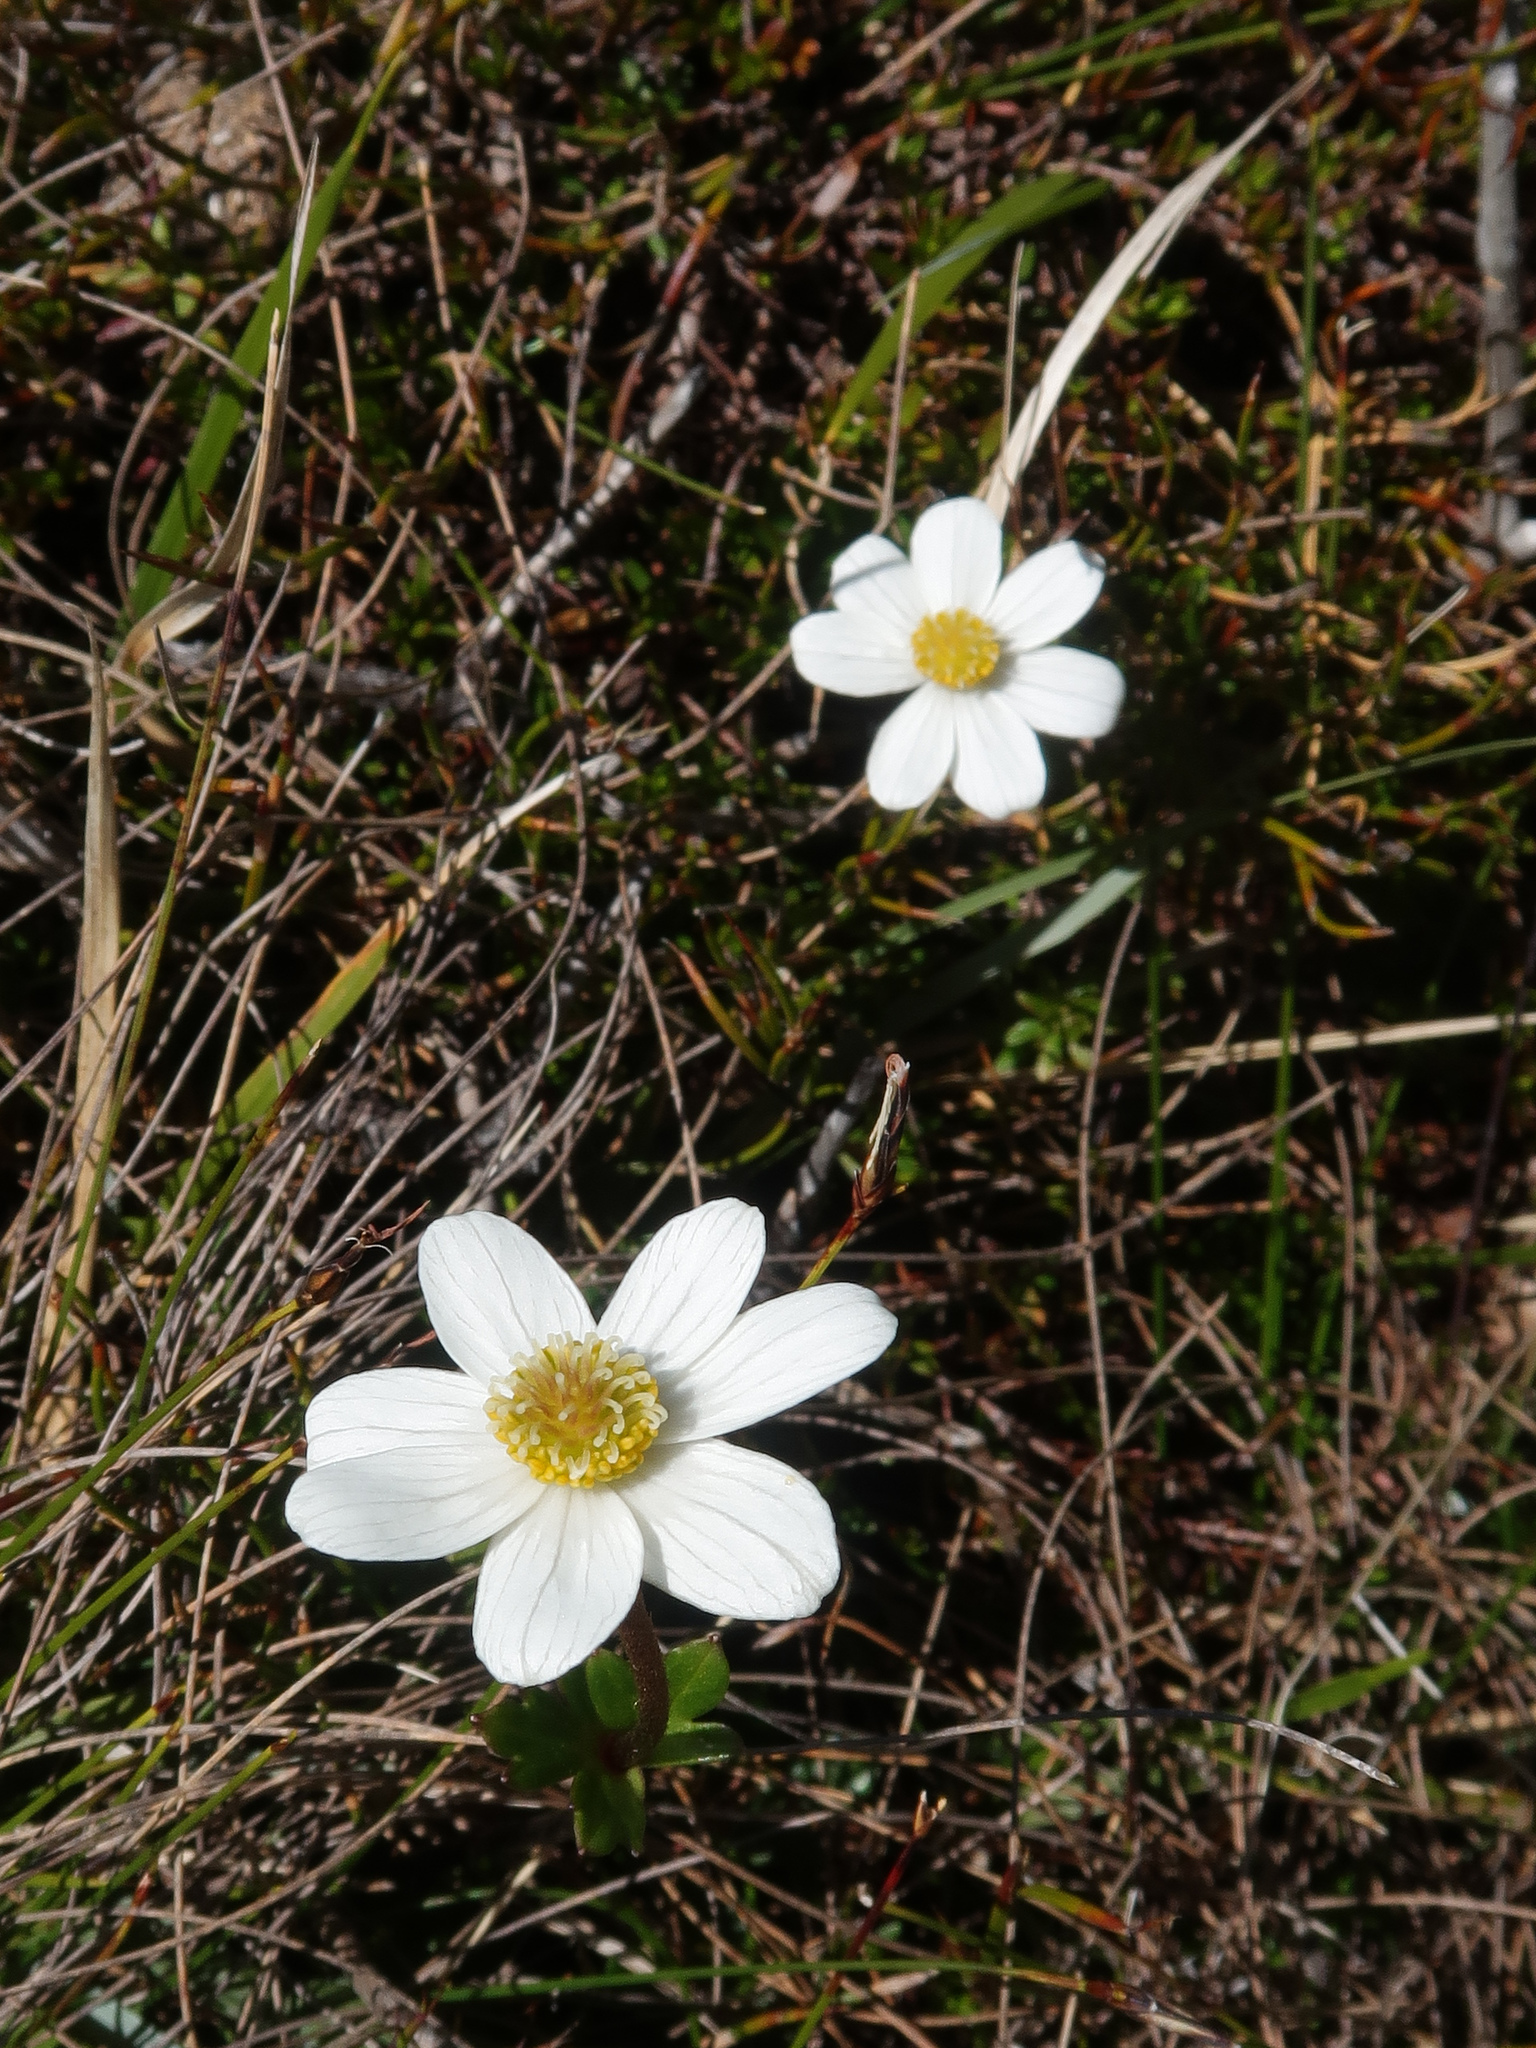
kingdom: Plantae
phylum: Tracheophyta
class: Magnoliopsida
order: Ranunculales
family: Ranunculaceae
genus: Knowltonia
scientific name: Knowltonia crassifolia
